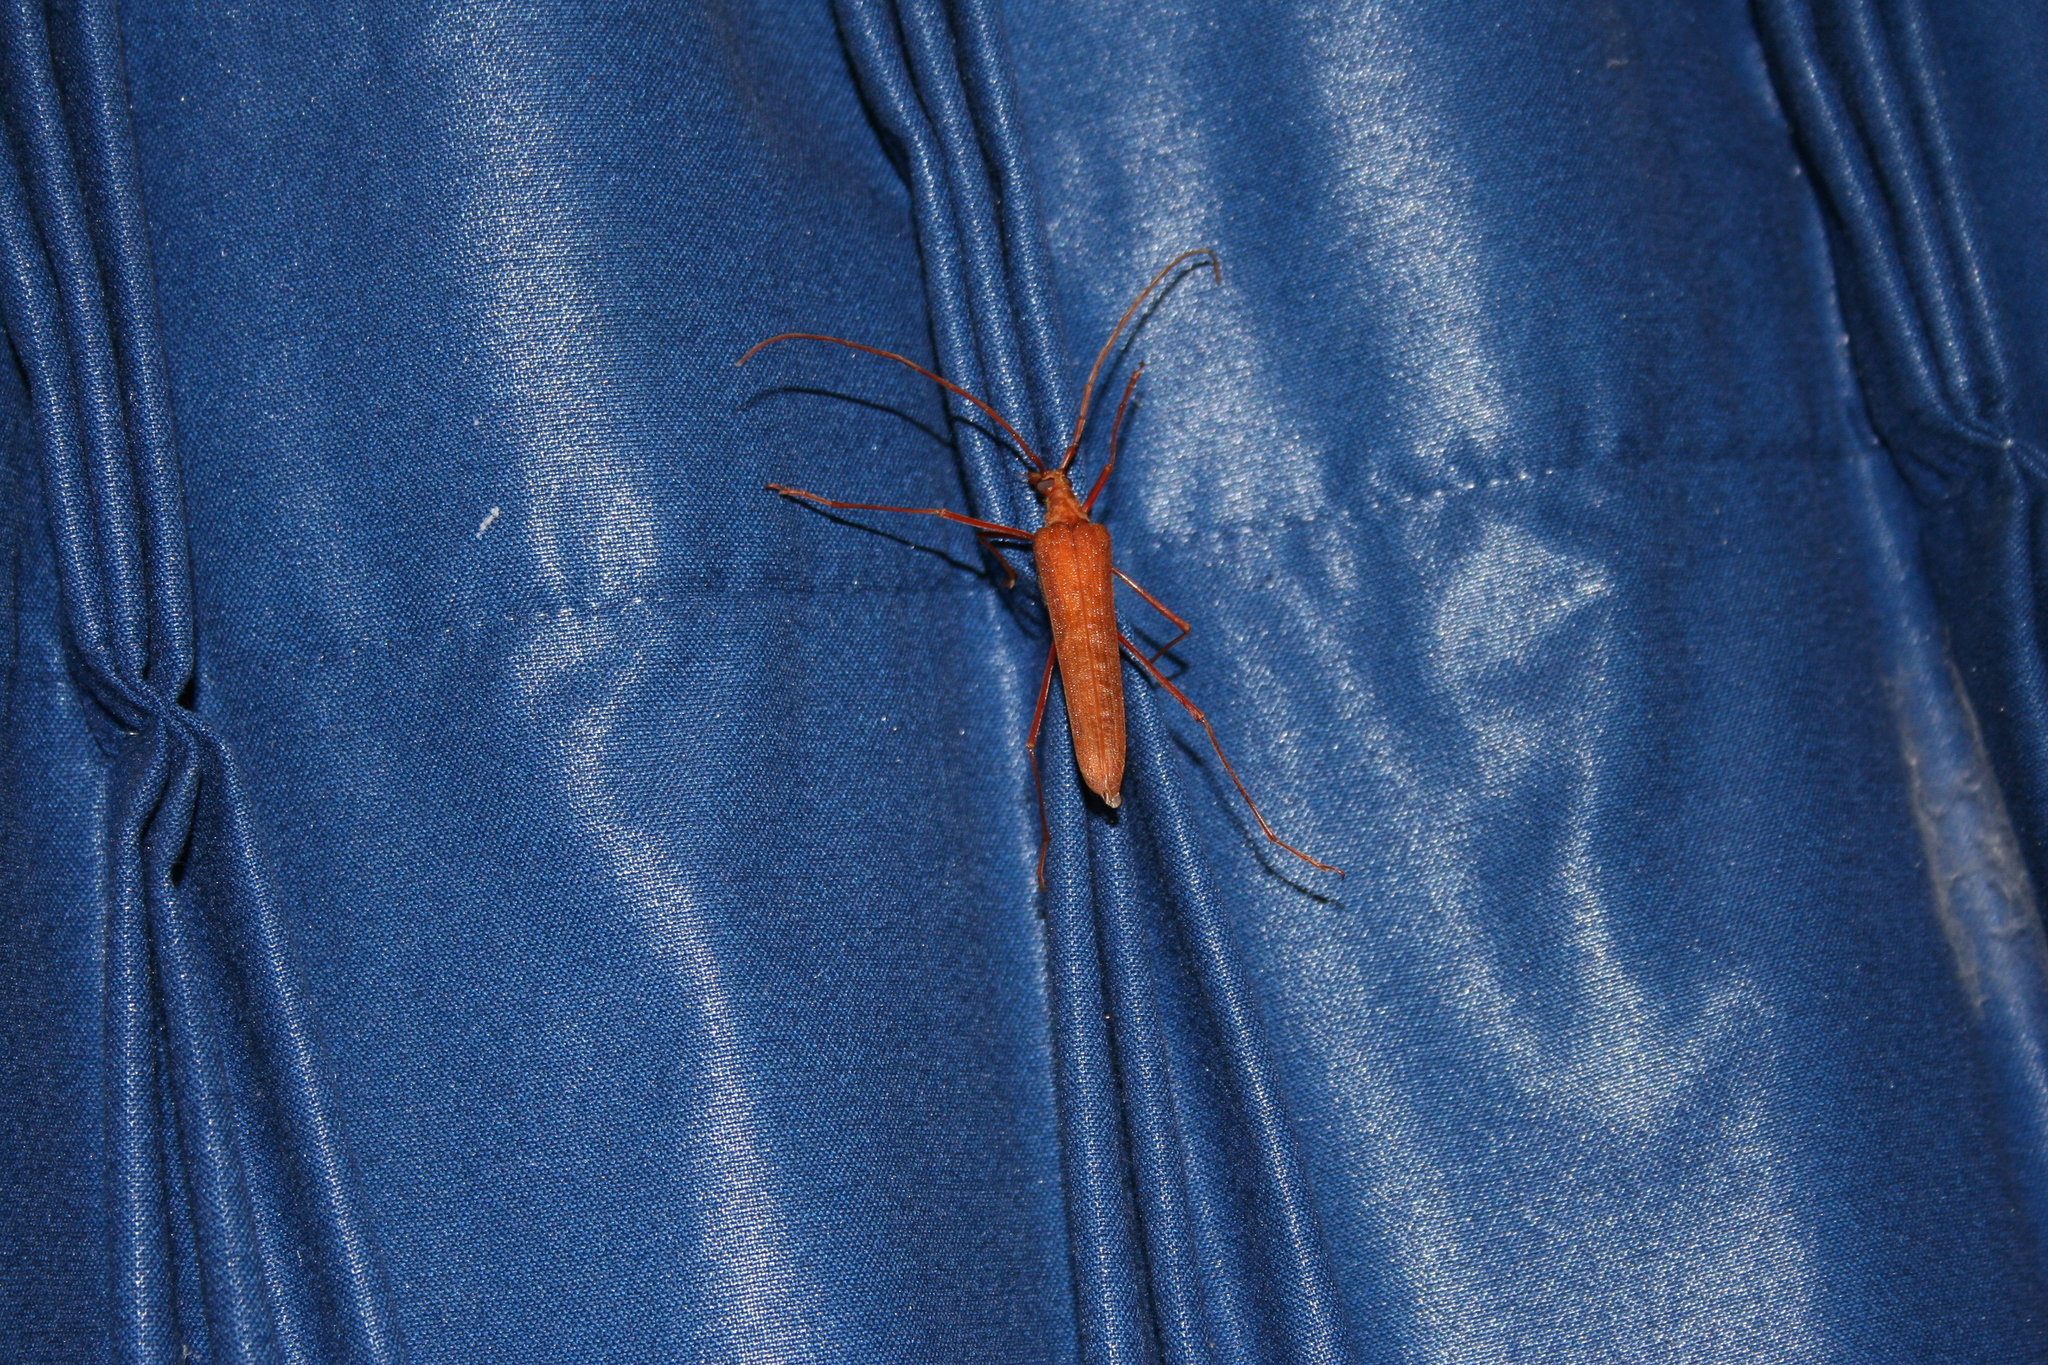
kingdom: Animalia
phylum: Arthropoda
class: Insecta
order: Coleoptera
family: Cerambycidae
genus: Proholopterus
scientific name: Proholopterus chilensis
